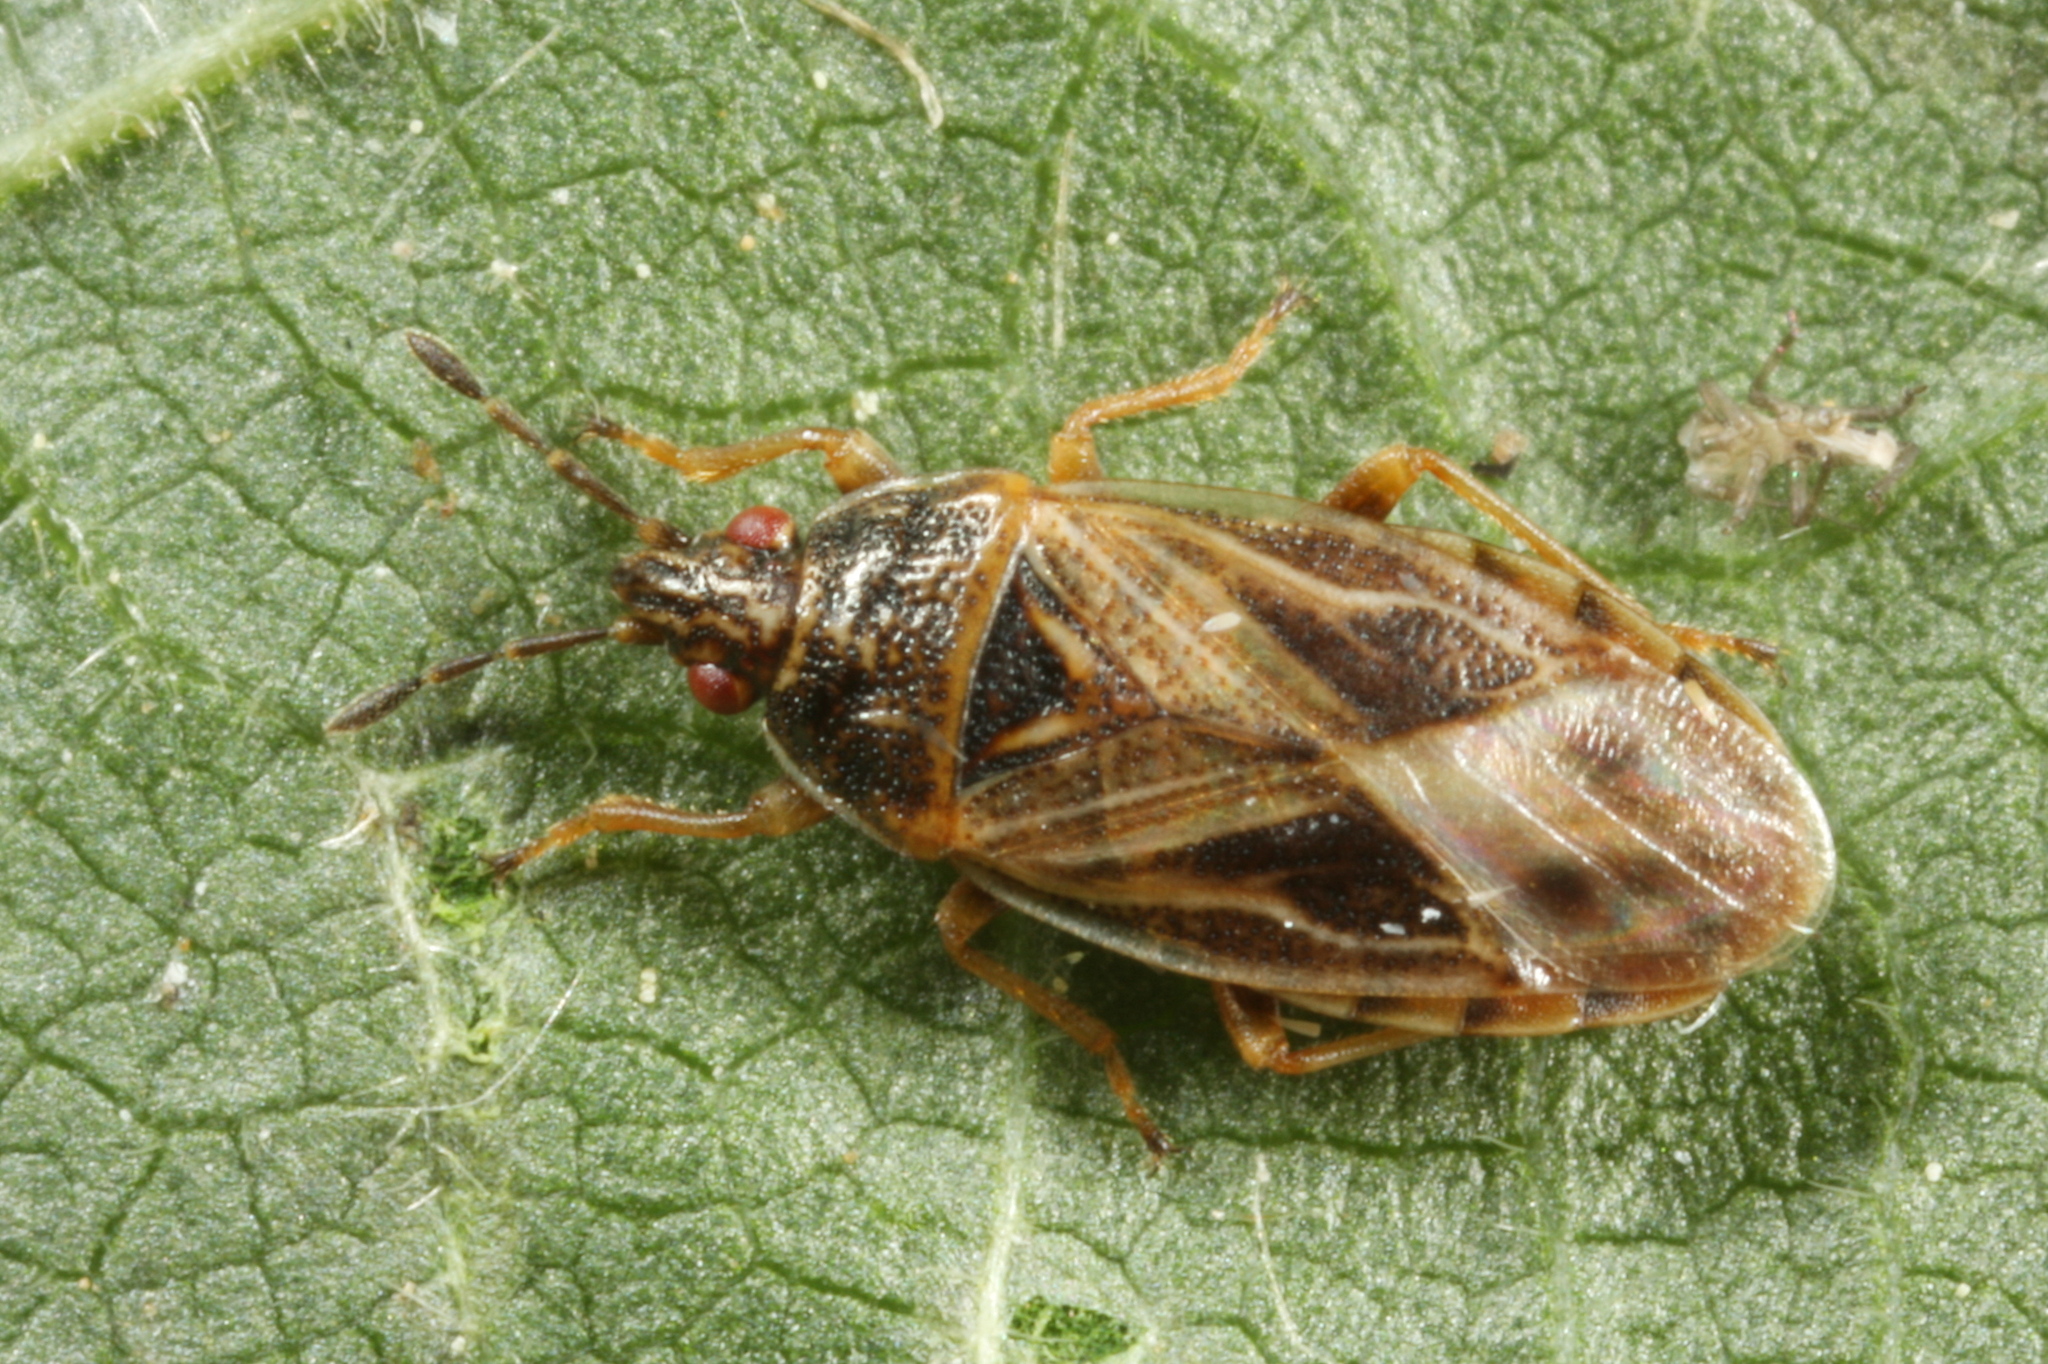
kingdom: Animalia
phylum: Arthropoda
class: Insecta
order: Hemiptera
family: Artheneidae
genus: Chilacis
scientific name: Chilacis typhae
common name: Cattail bug
